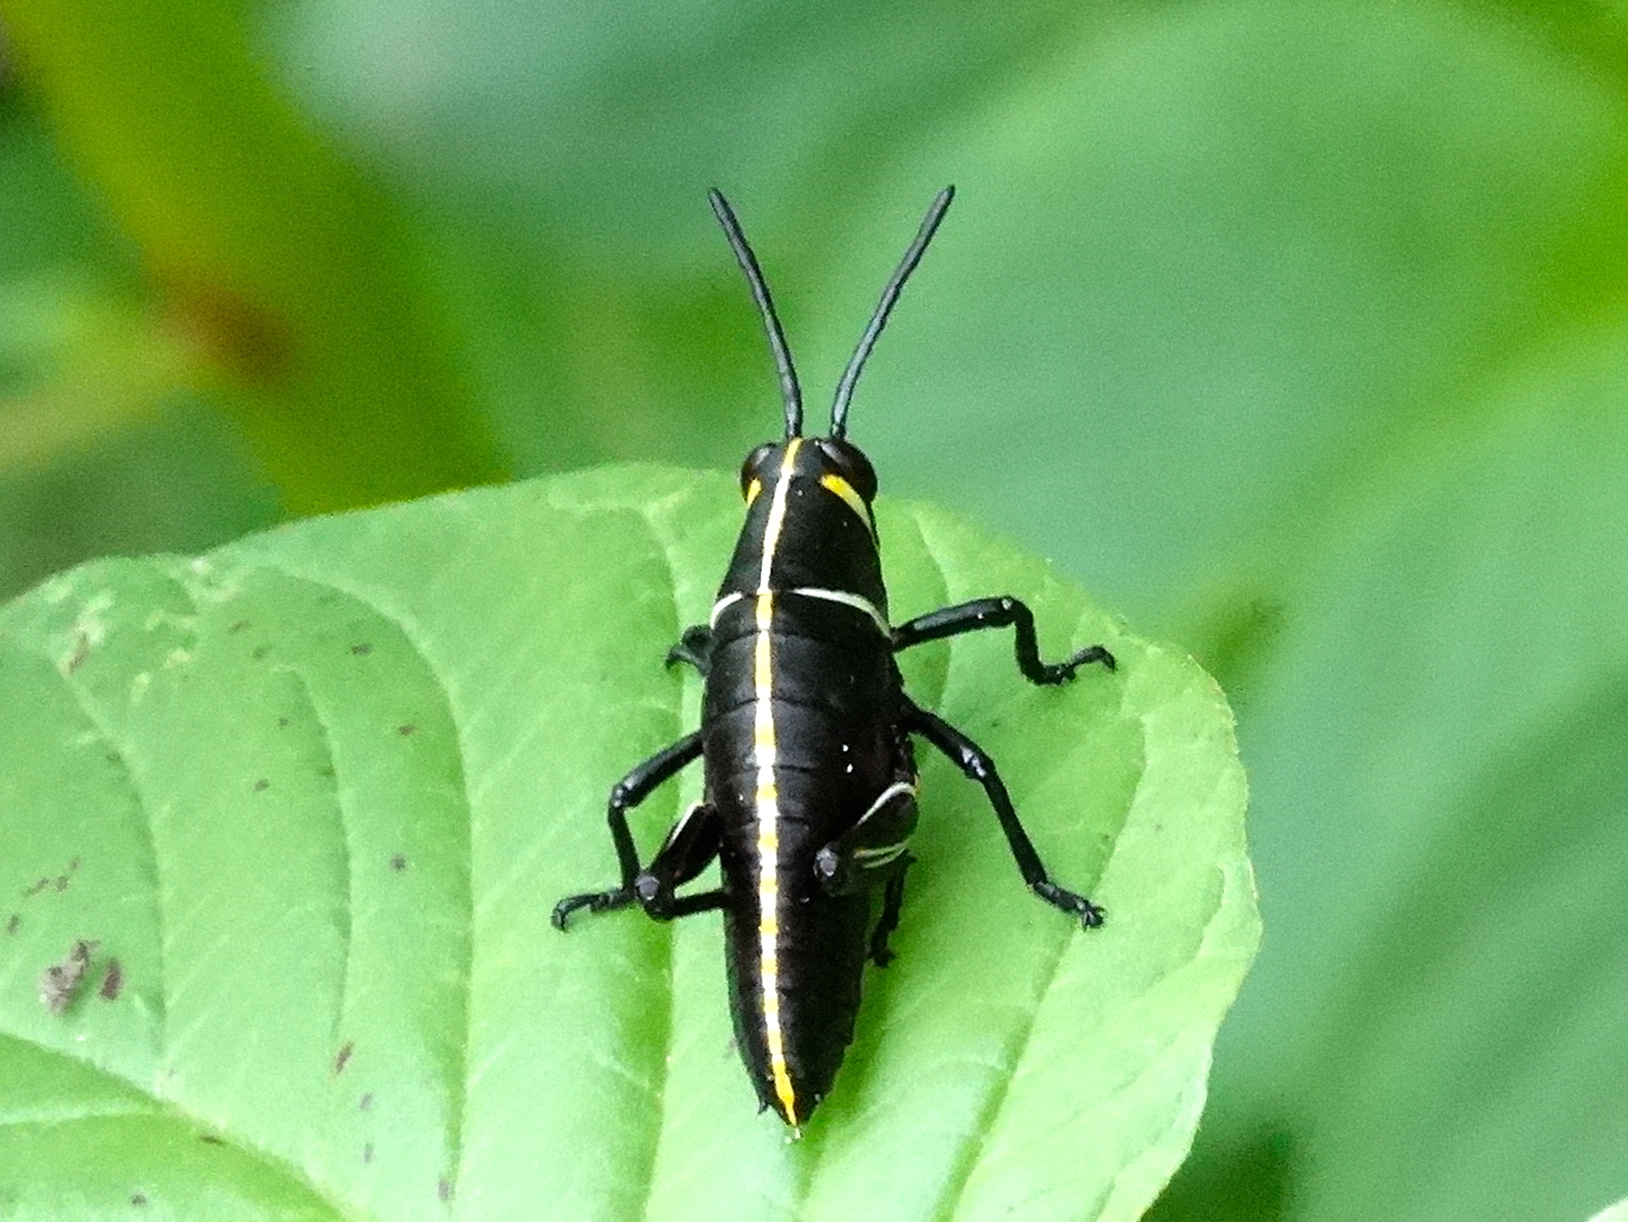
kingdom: Animalia
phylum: Arthropoda
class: Insecta
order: Orthoptera
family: Romaleidae
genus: Romalea
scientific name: Romalea
